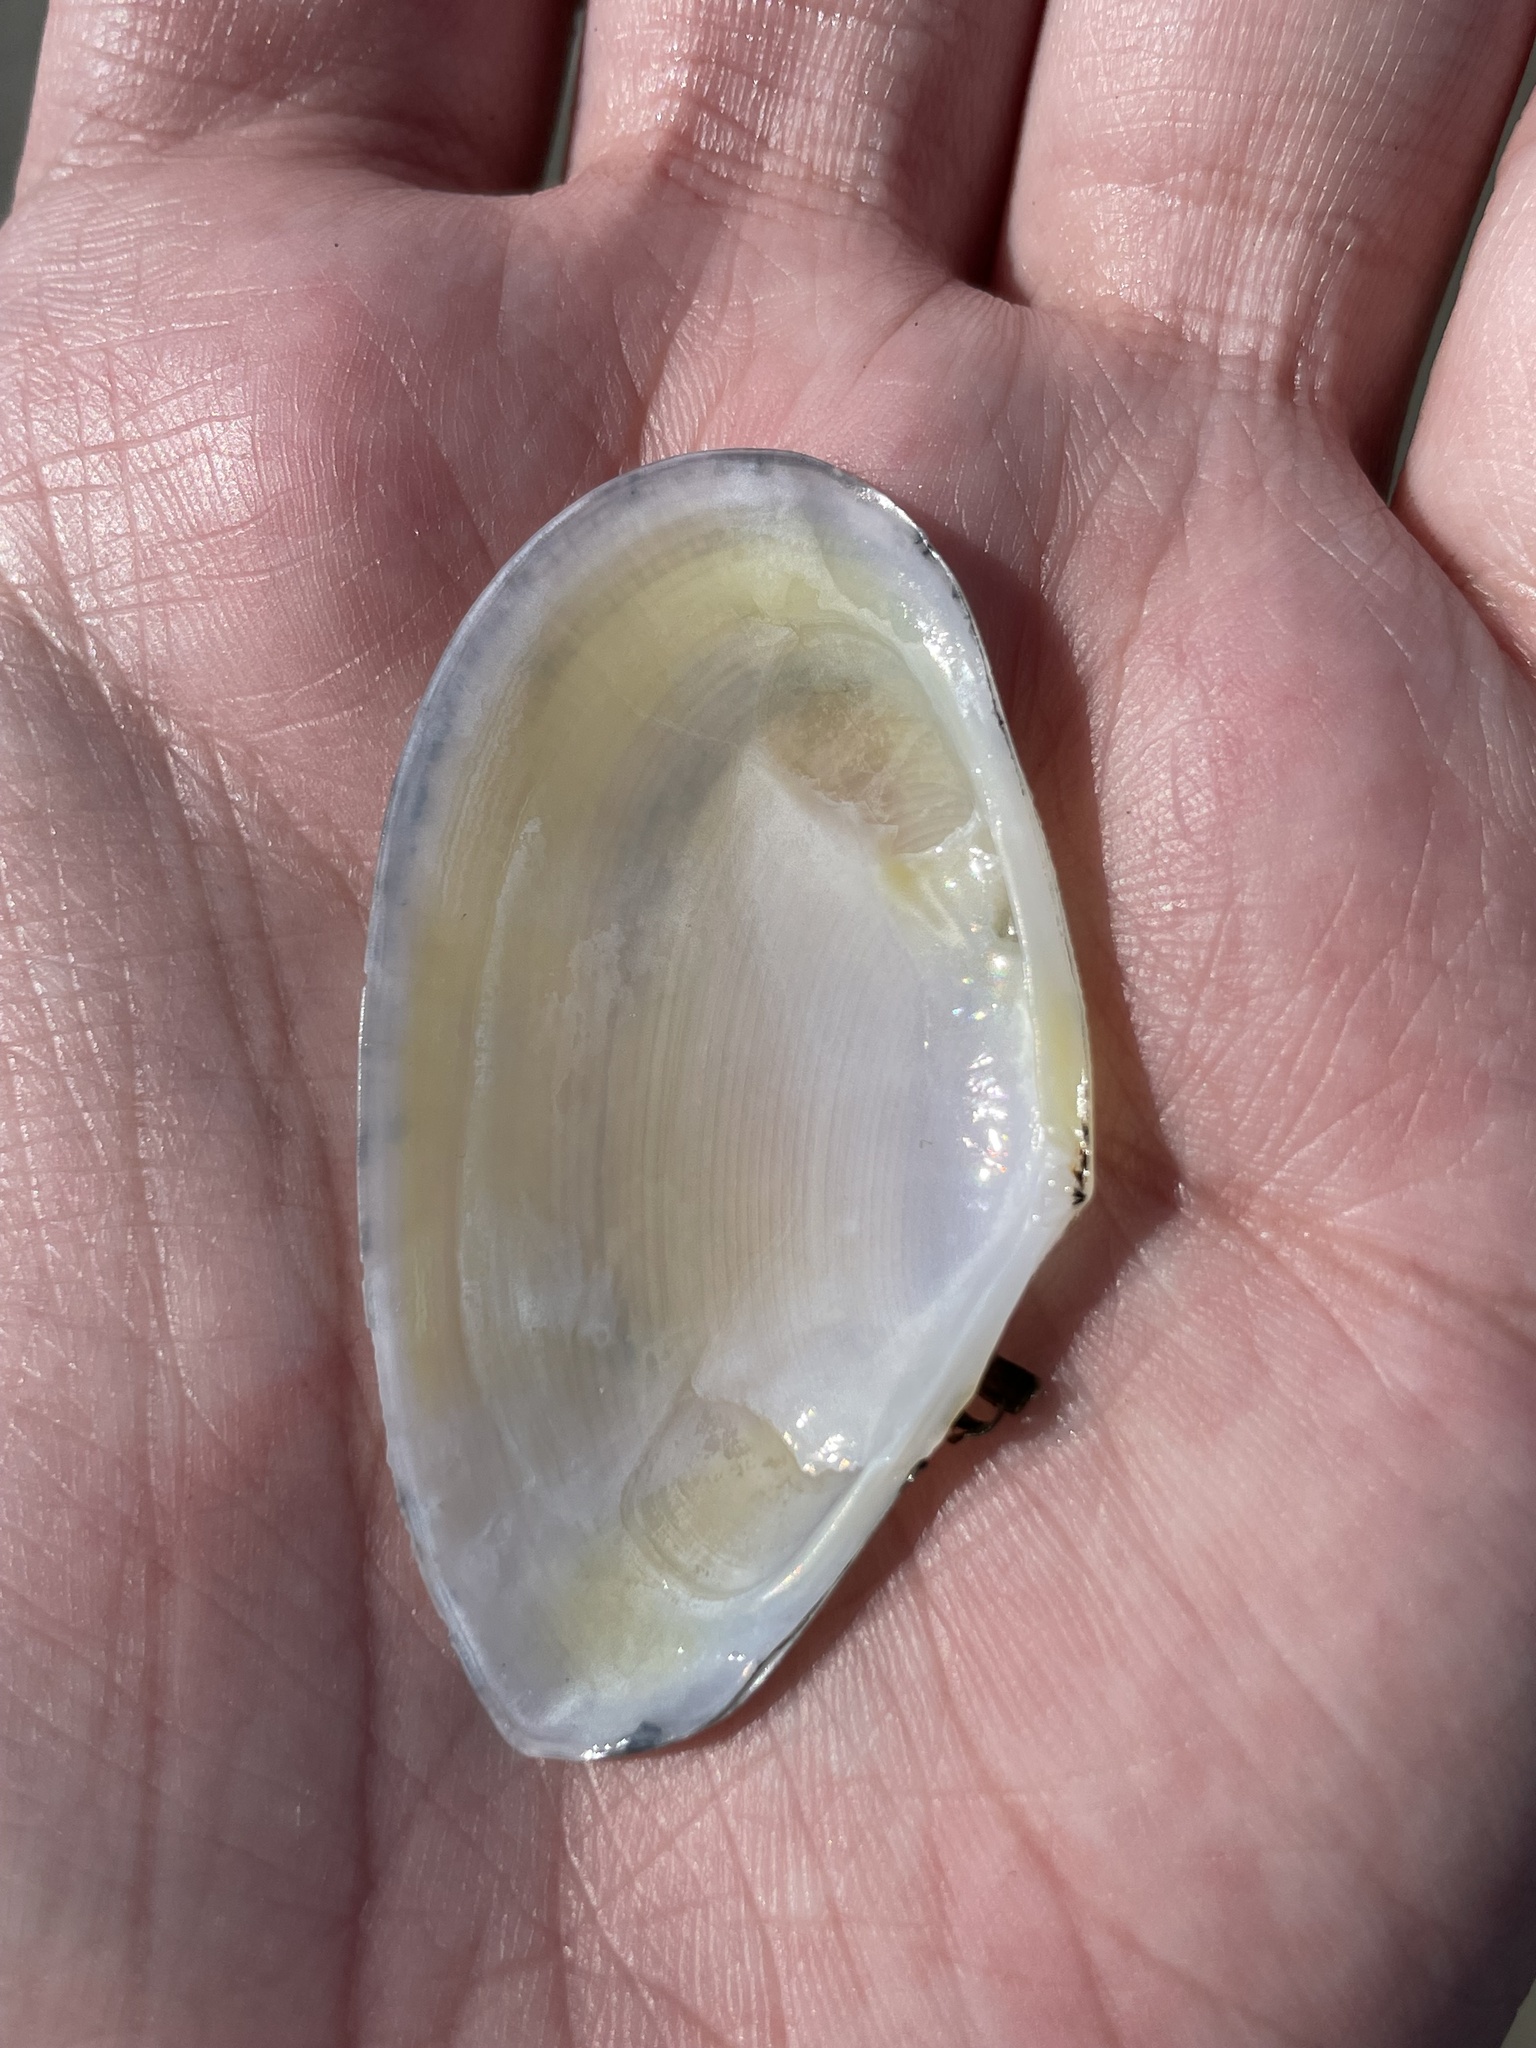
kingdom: Animalia
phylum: Mollusca
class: Bivalvia
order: Cardiida
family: Tellinidae
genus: Eurytellina
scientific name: Eurytellina alternata
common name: Alternate tellin
